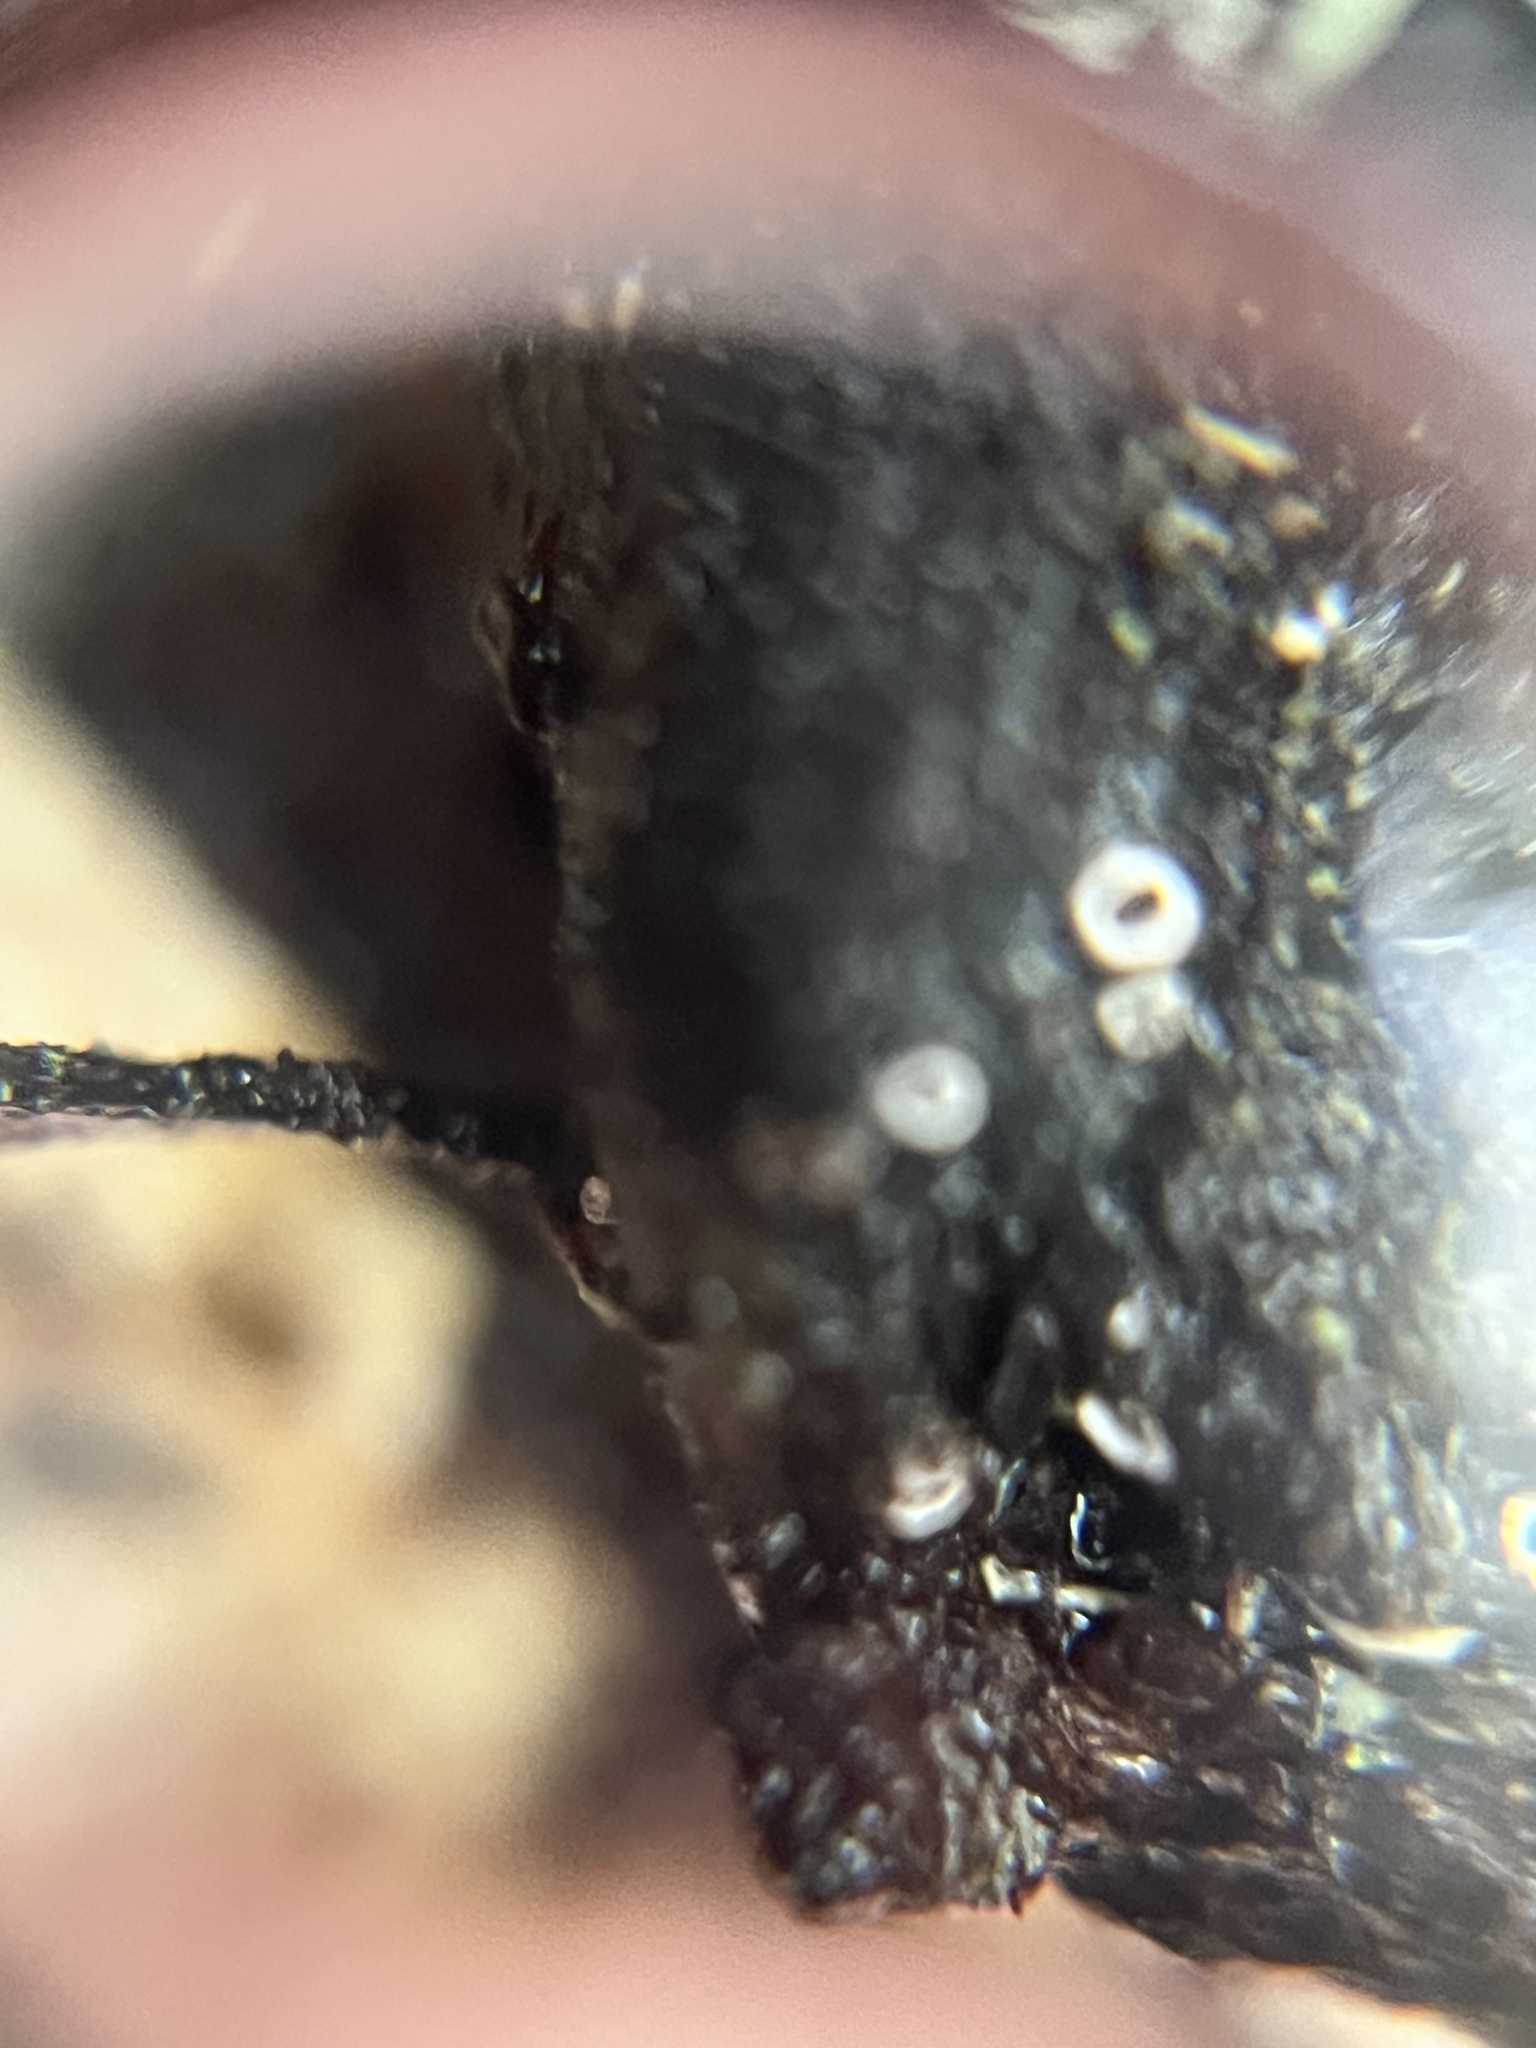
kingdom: Fungi
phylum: Ascomycota
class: Lecanoromycetes
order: Ostropales
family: Stictidaceae
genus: Stictis
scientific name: Stictis radiata
